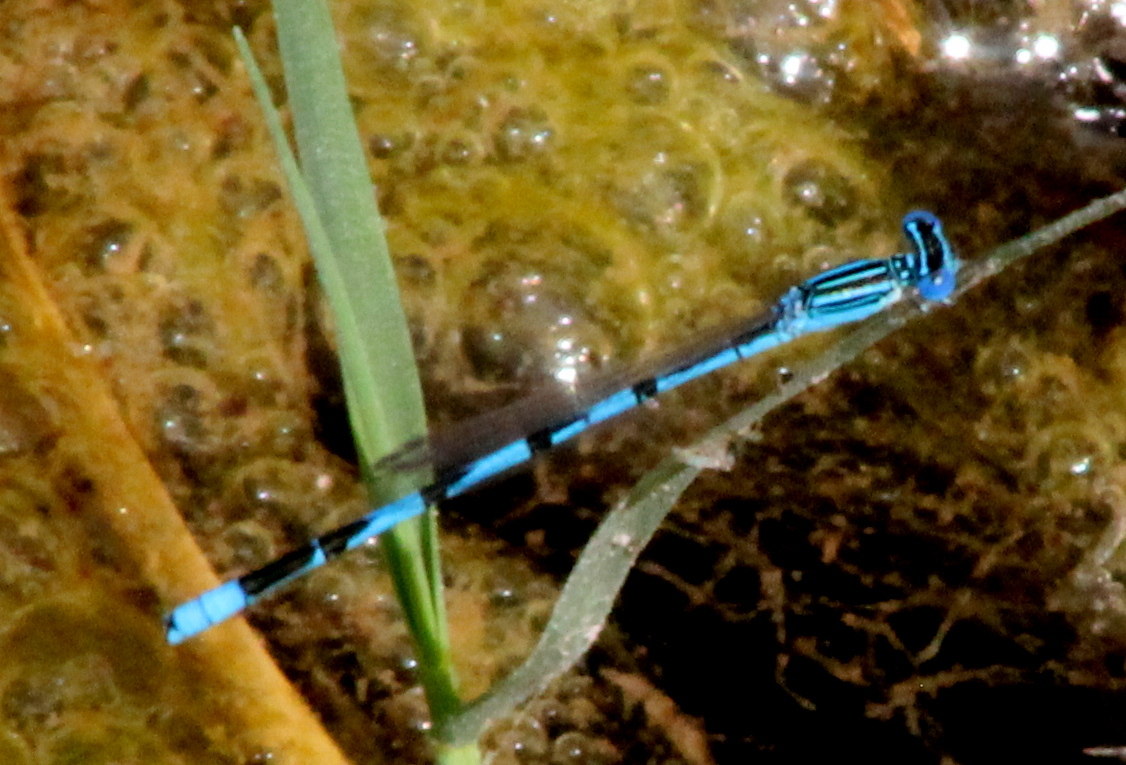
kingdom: Animalia
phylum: Arthropoda
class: Insecta
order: Odonata
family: Coenagrionidae
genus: Enallagma
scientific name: Enallagma basidens
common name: Double-striped bluet
